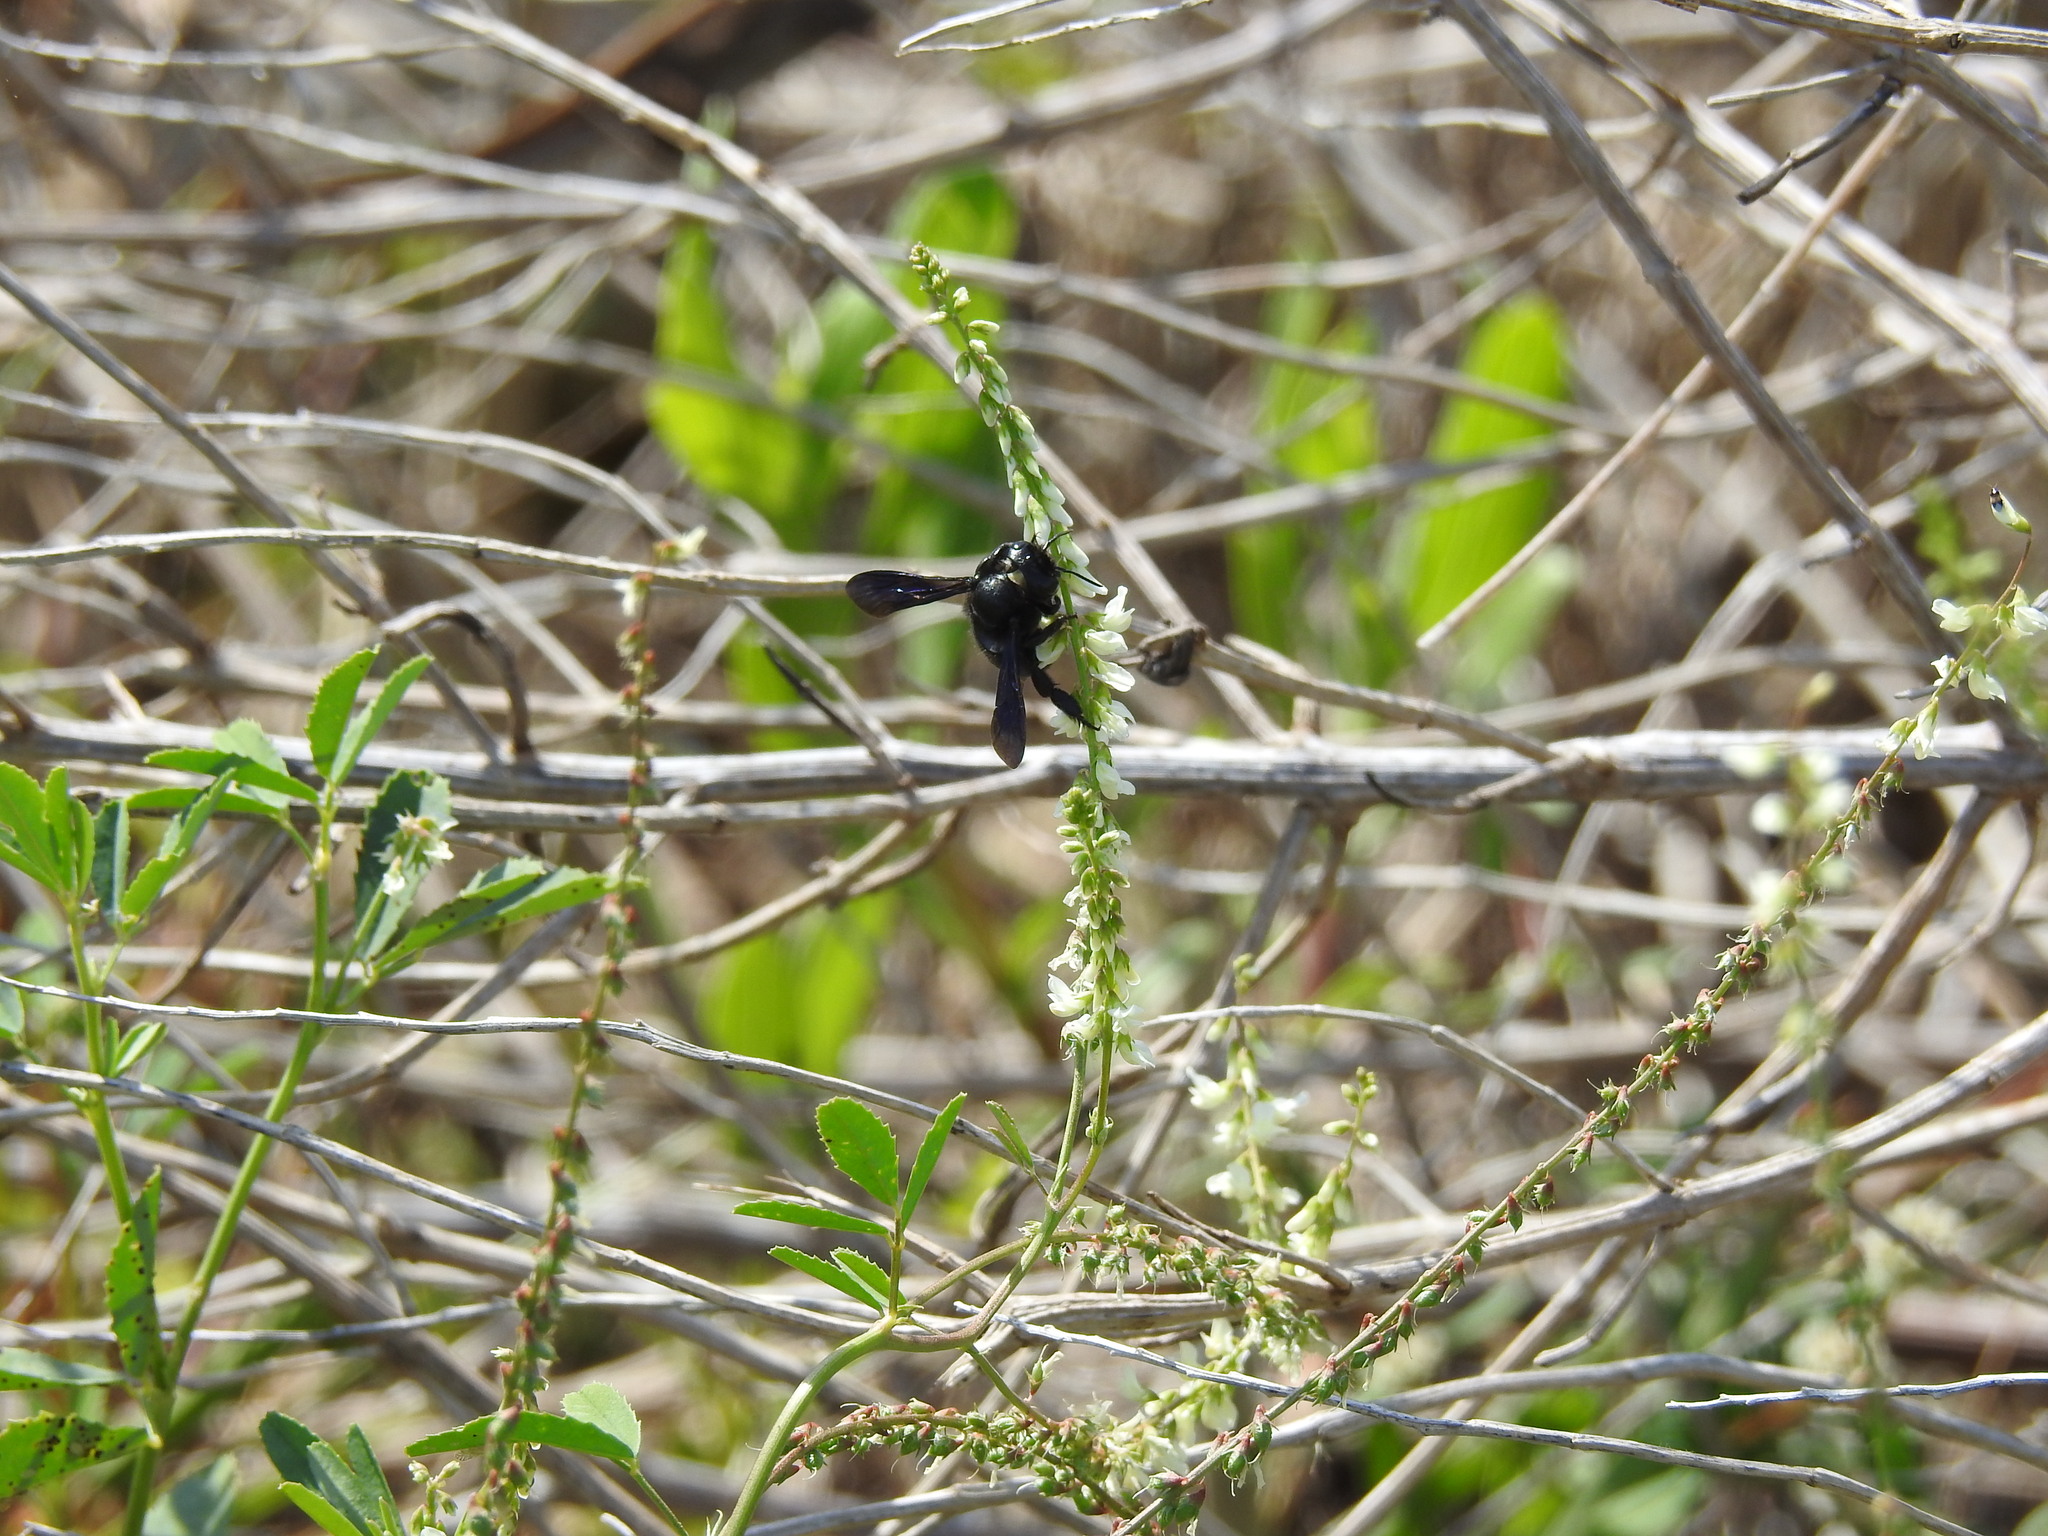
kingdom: Animalia
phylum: Arthropoda
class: Insecta
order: Hymenoptera
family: Megachilidae
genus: Megachile
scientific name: Megachile xylocopoides
